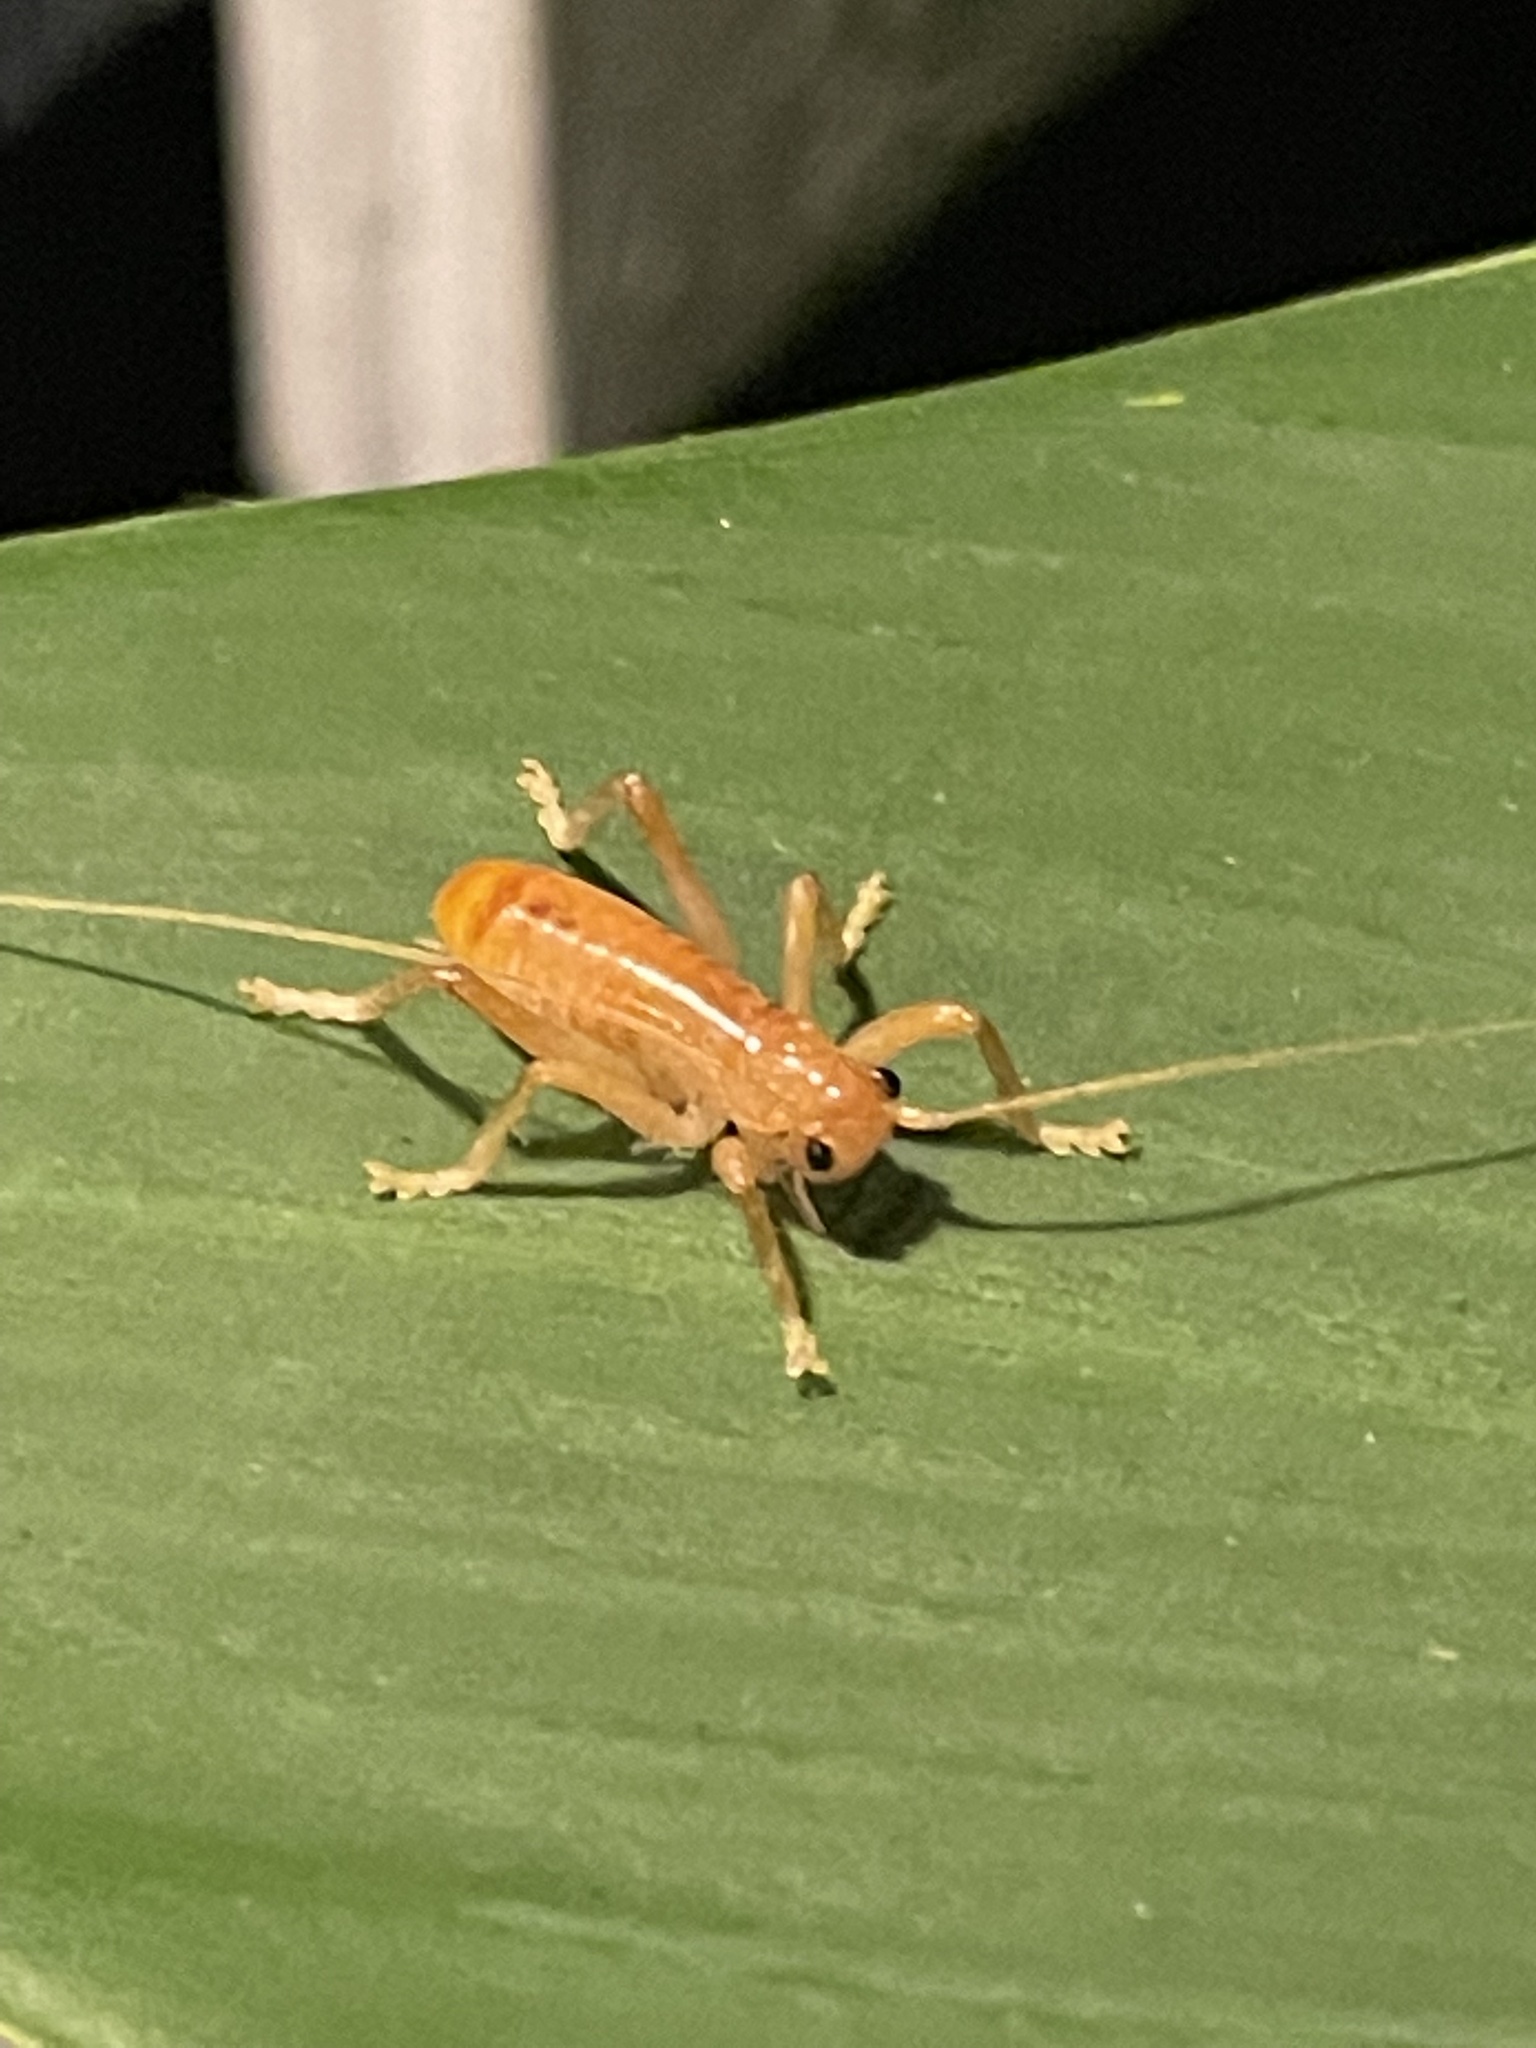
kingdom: Animalia
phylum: Arthropoda
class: Insecta
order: Orthoptera
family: Gryllacrididae
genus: Camptonotus
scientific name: Camptonotus carolinensis
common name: Carolina leaf-roller
